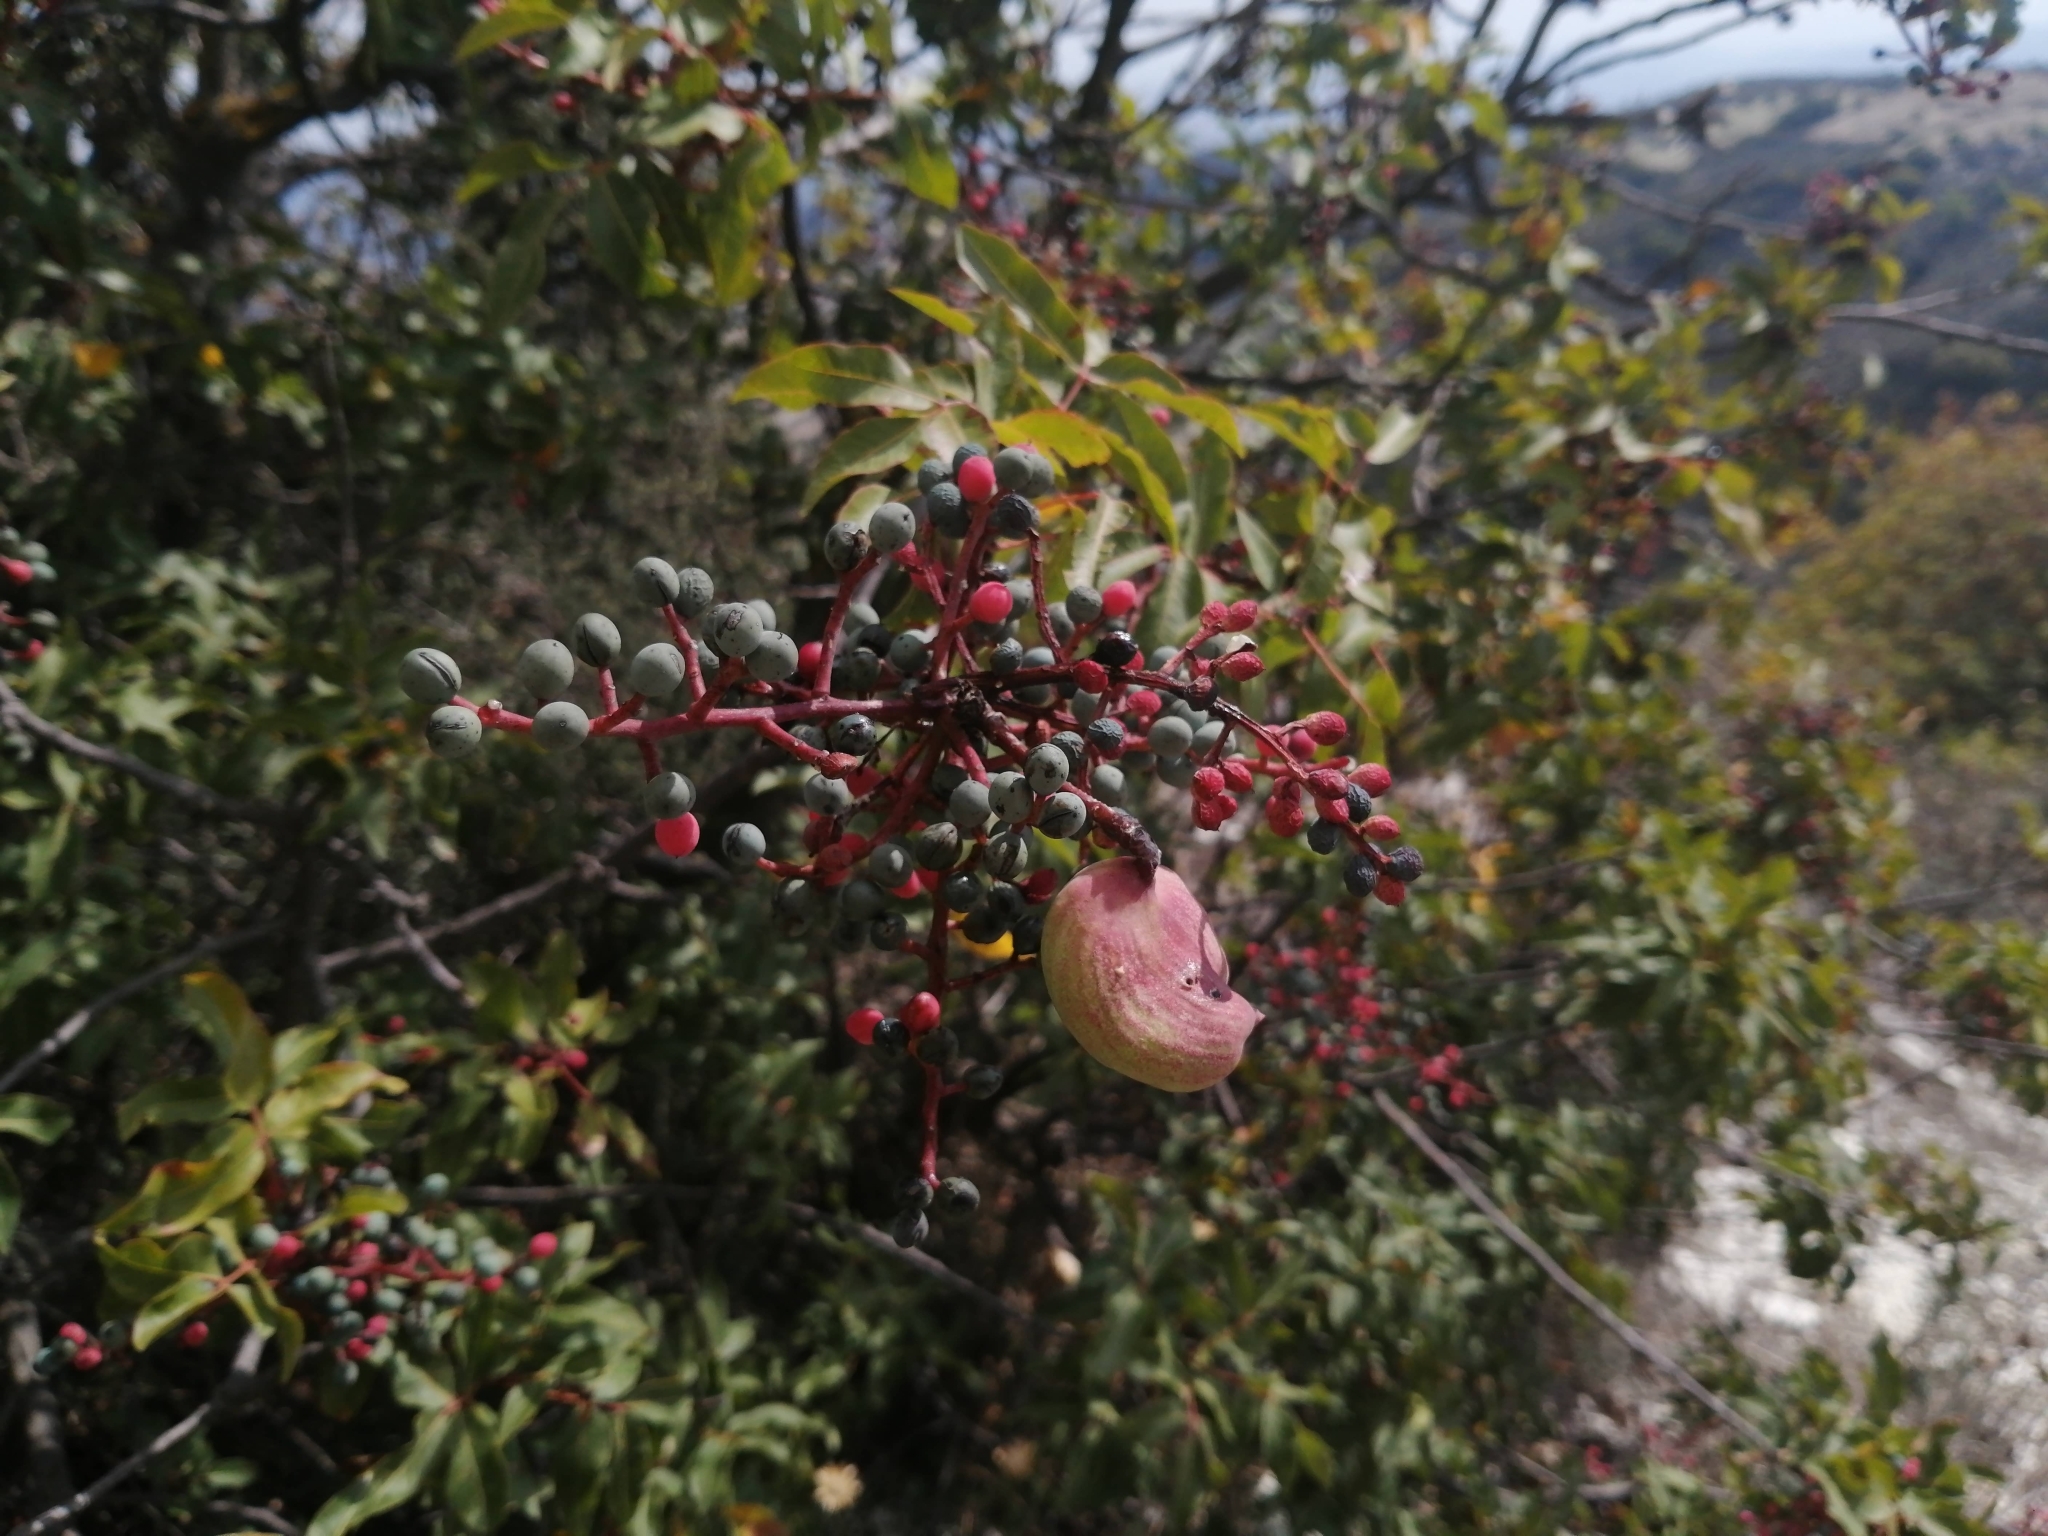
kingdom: Plantae
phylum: Tracheophyta
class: Magnoliopsida
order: Sapindales
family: Anacardiaceae
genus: Pistacia
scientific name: Pistacia terebinthus
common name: Terebinth
